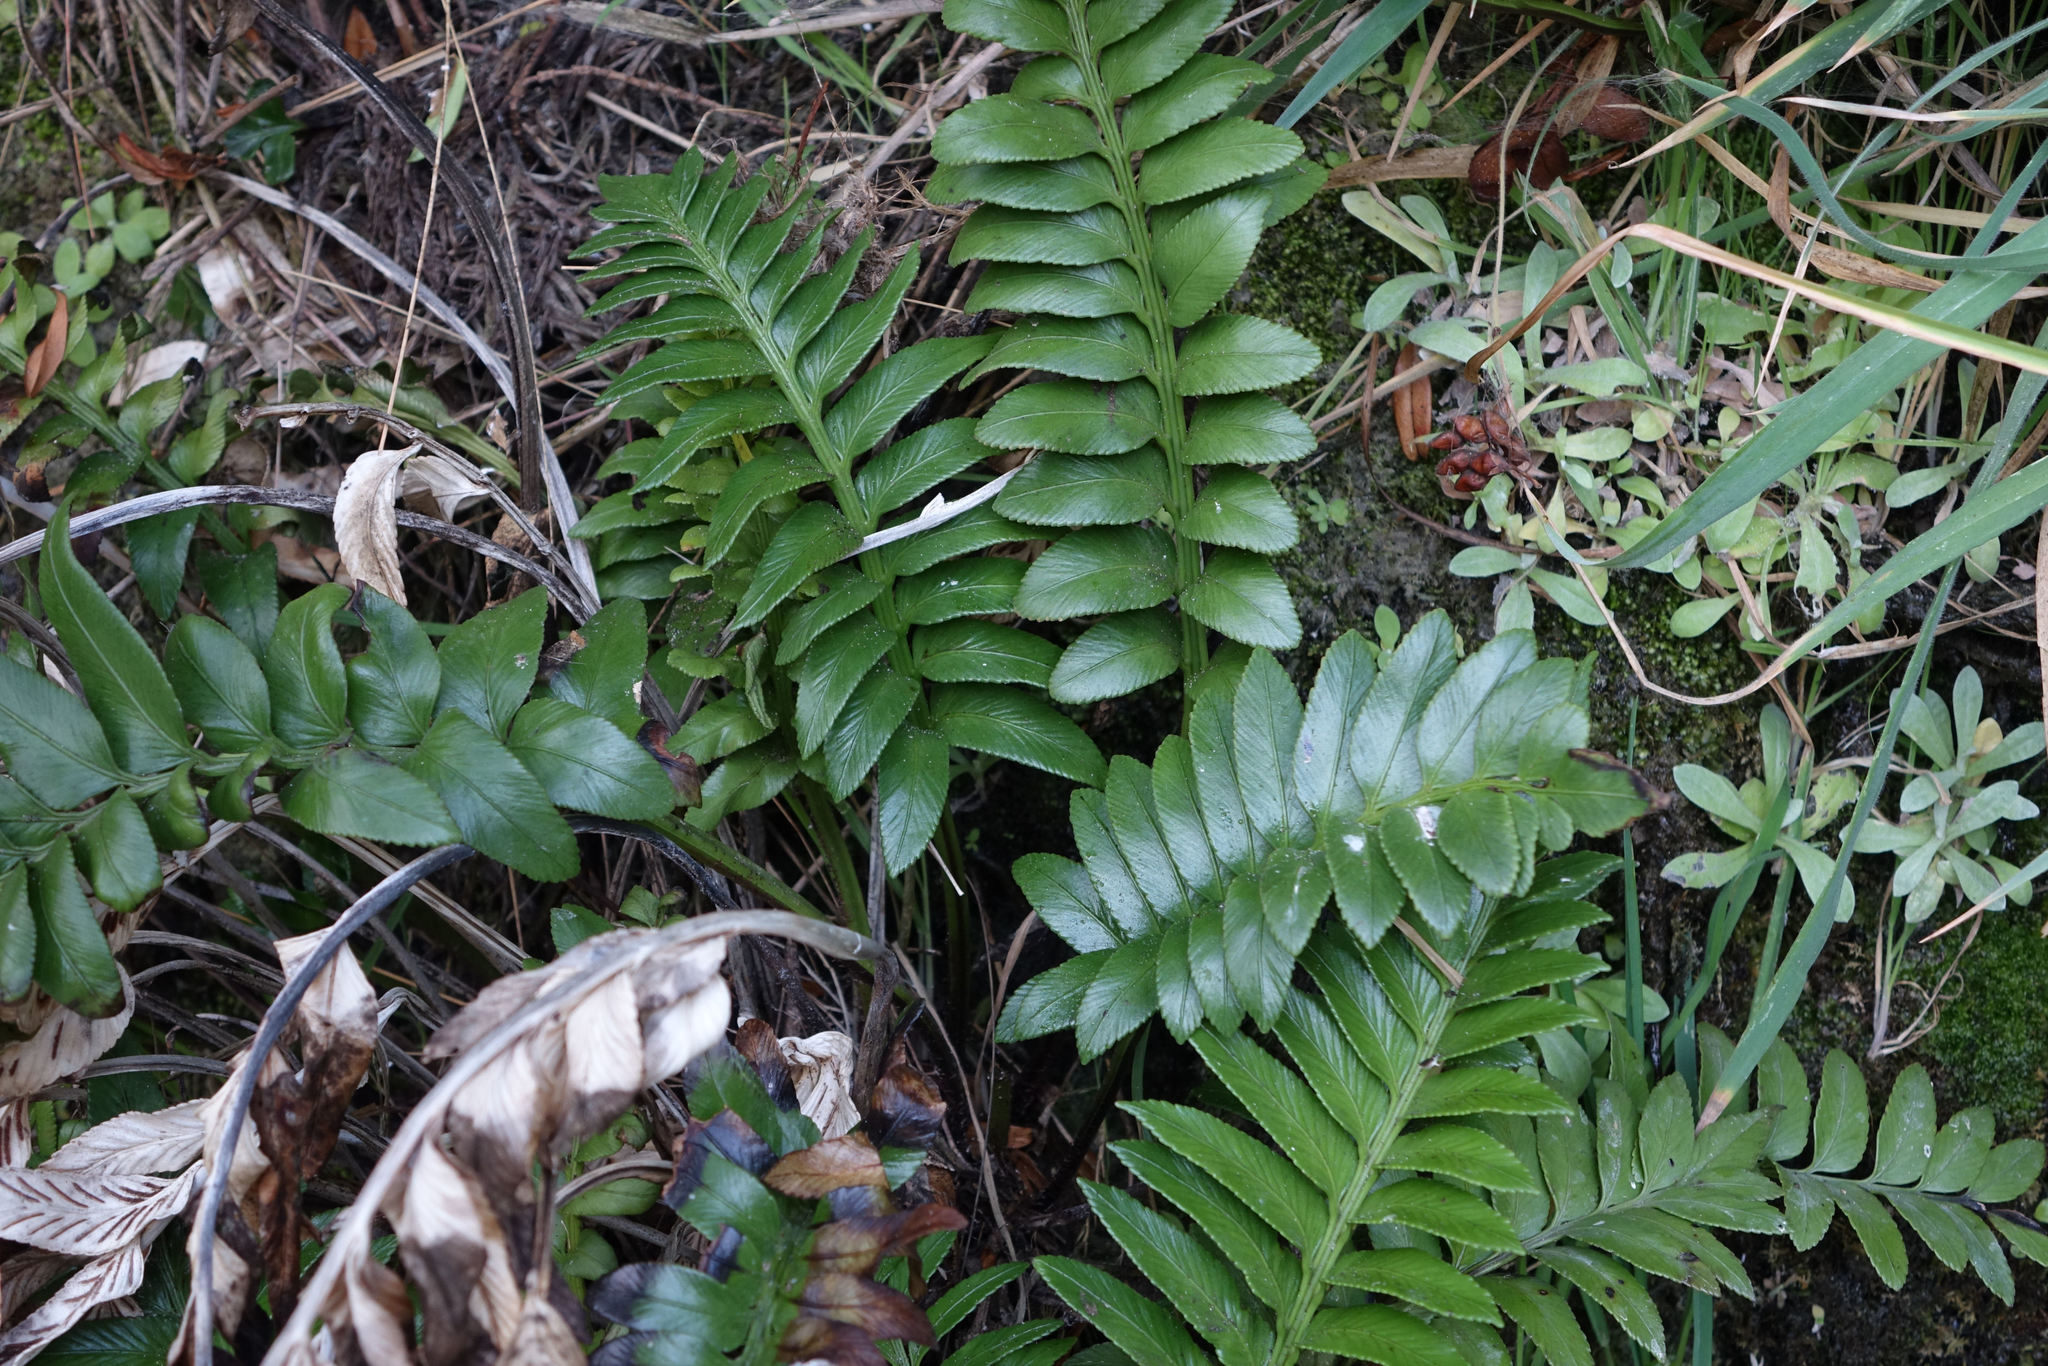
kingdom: Plantae
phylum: Tracheophyta
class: Polypodiopsida
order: Polypodiales
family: Aspleniaceae
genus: Asplenium
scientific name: Asplenium obtusatum
